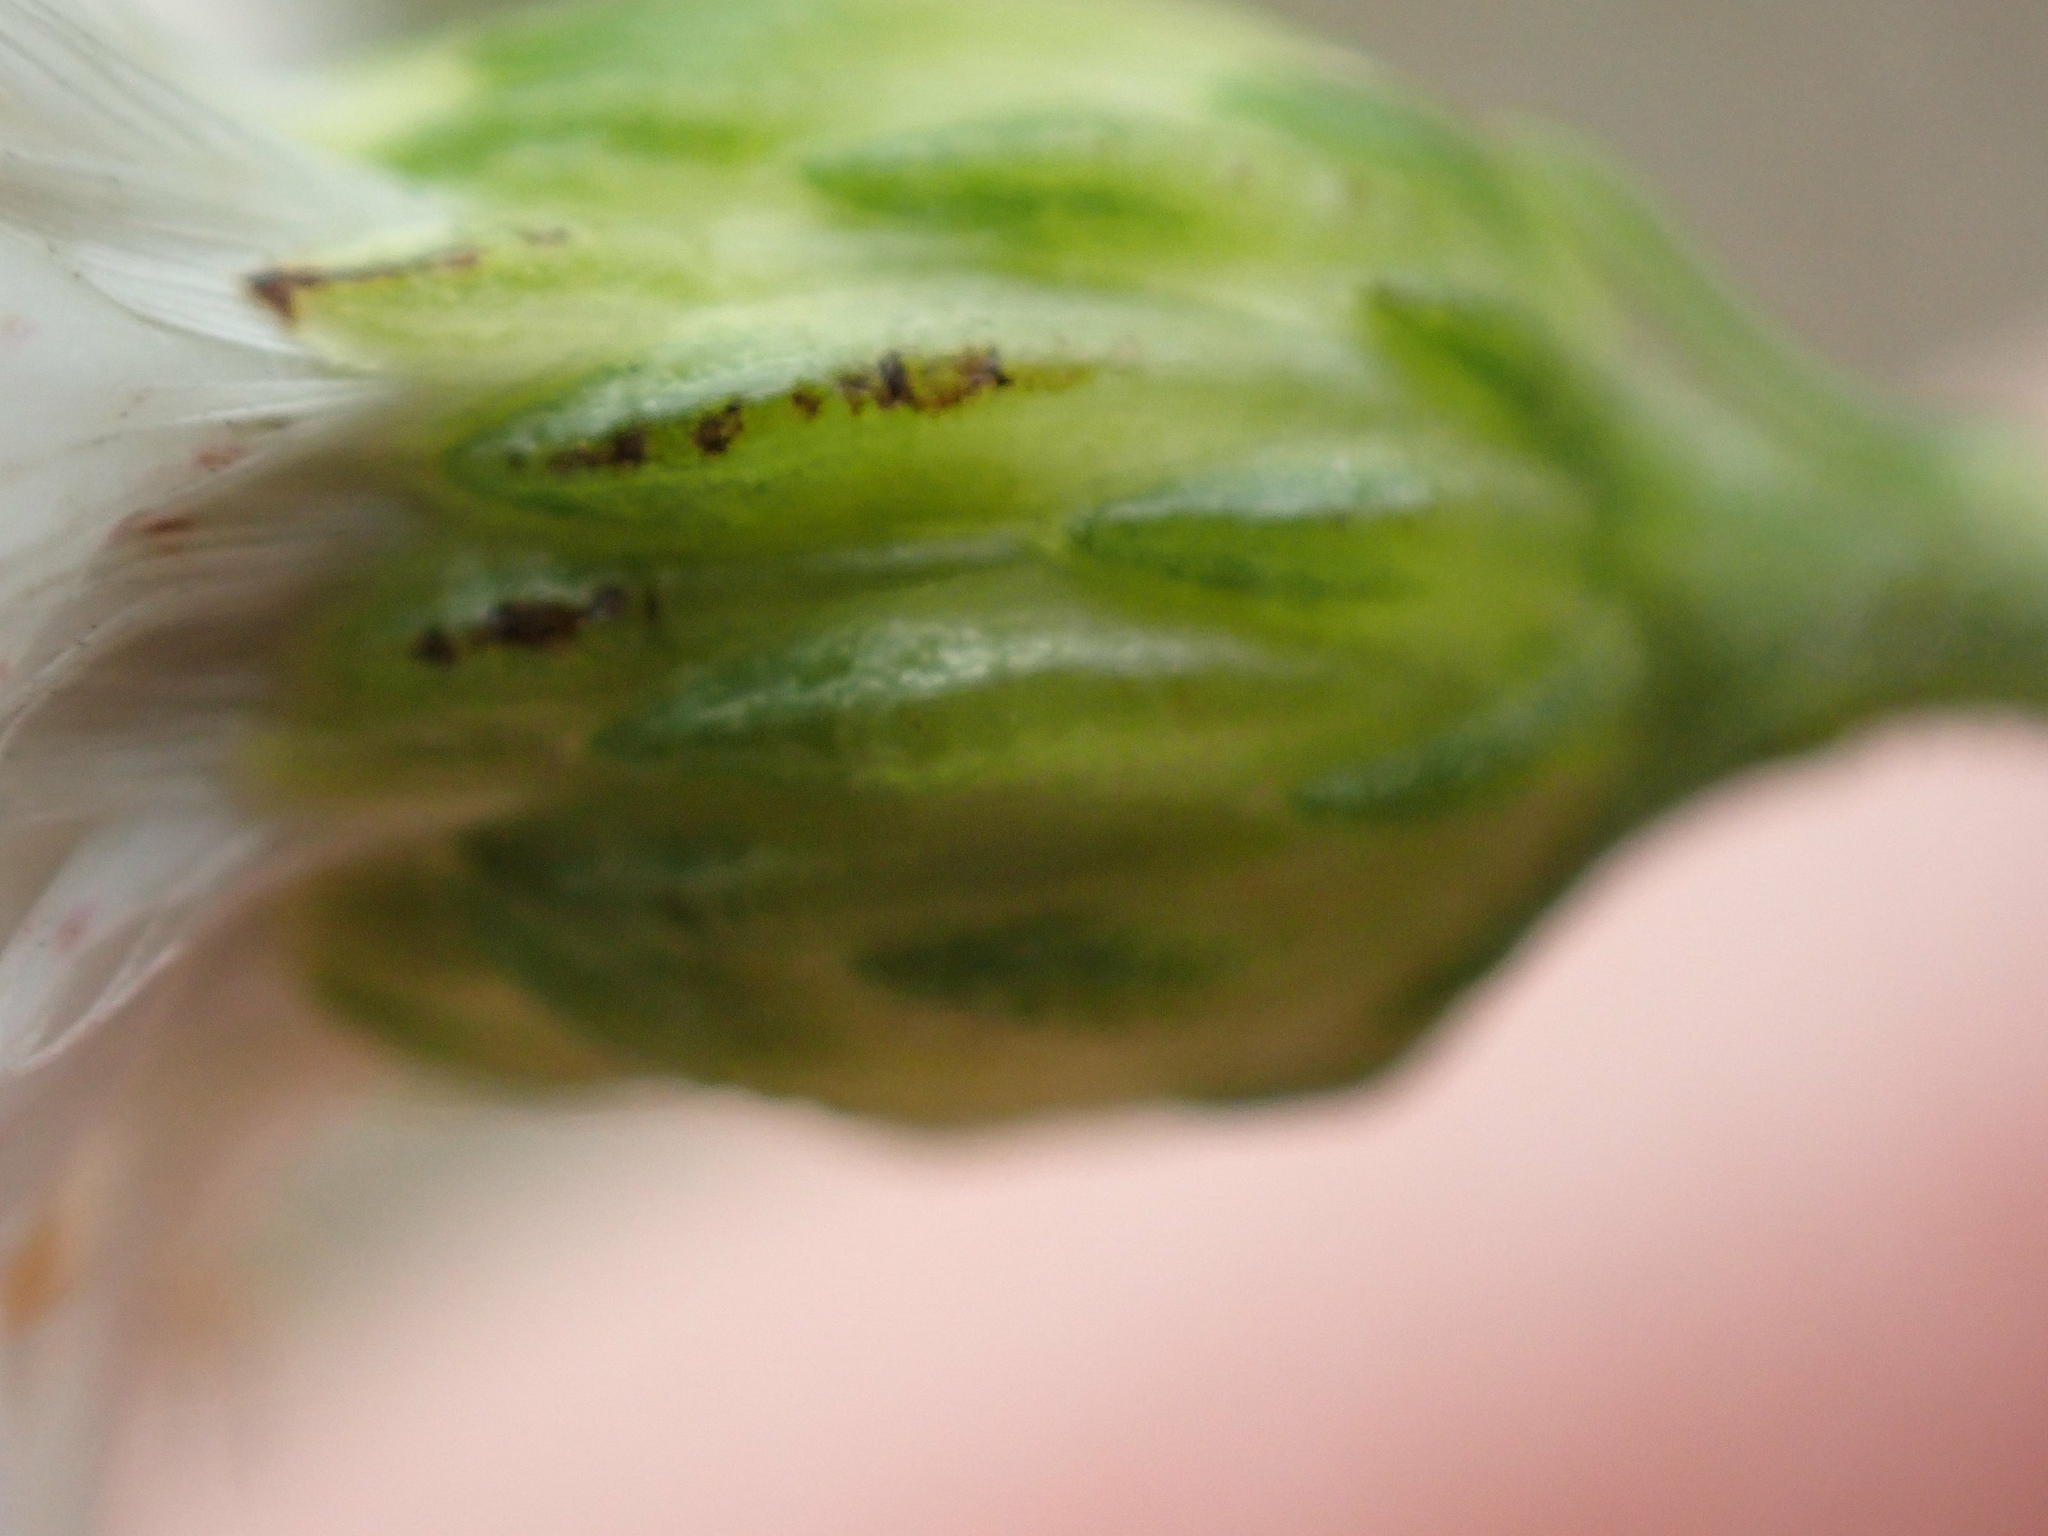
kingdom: Plantae
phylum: Tracheophyta
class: Magnoliopsida
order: Asterales
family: Asteraceae
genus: Solidago
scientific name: Solidago ptarmicoides
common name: White flat-top goldenrod
